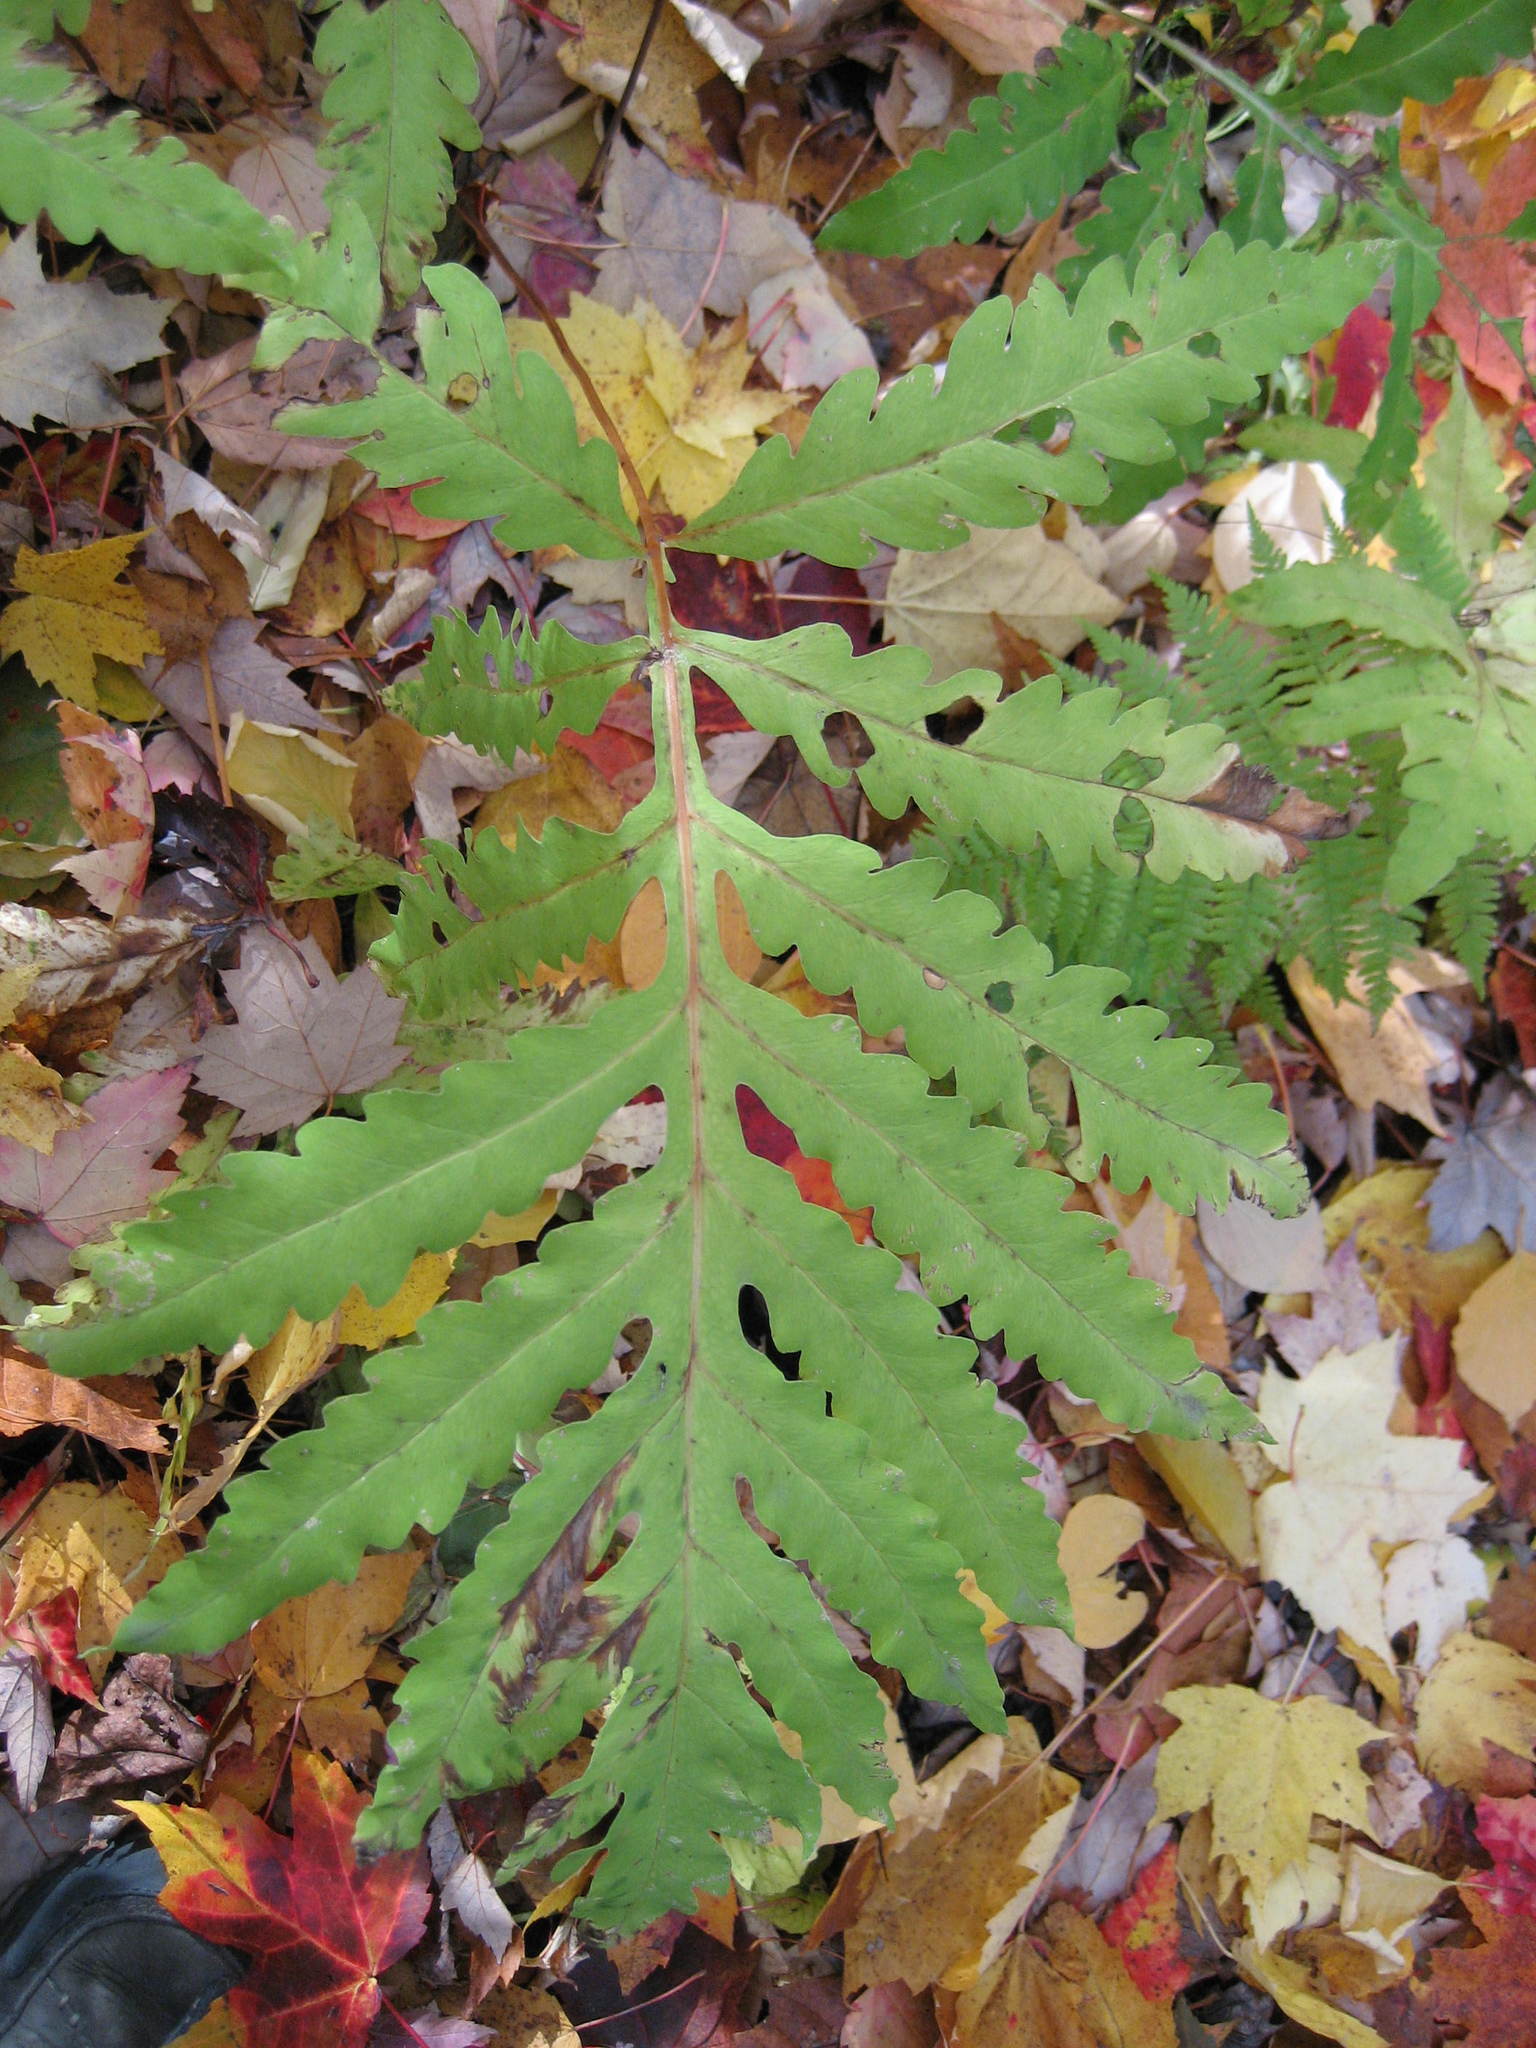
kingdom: Plantae
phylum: Tracheophyta
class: Polypodiopsida
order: Polypodiales
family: Onocleaceae
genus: Onoclea
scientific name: Onoclea sensibilis
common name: Sensitive fern
